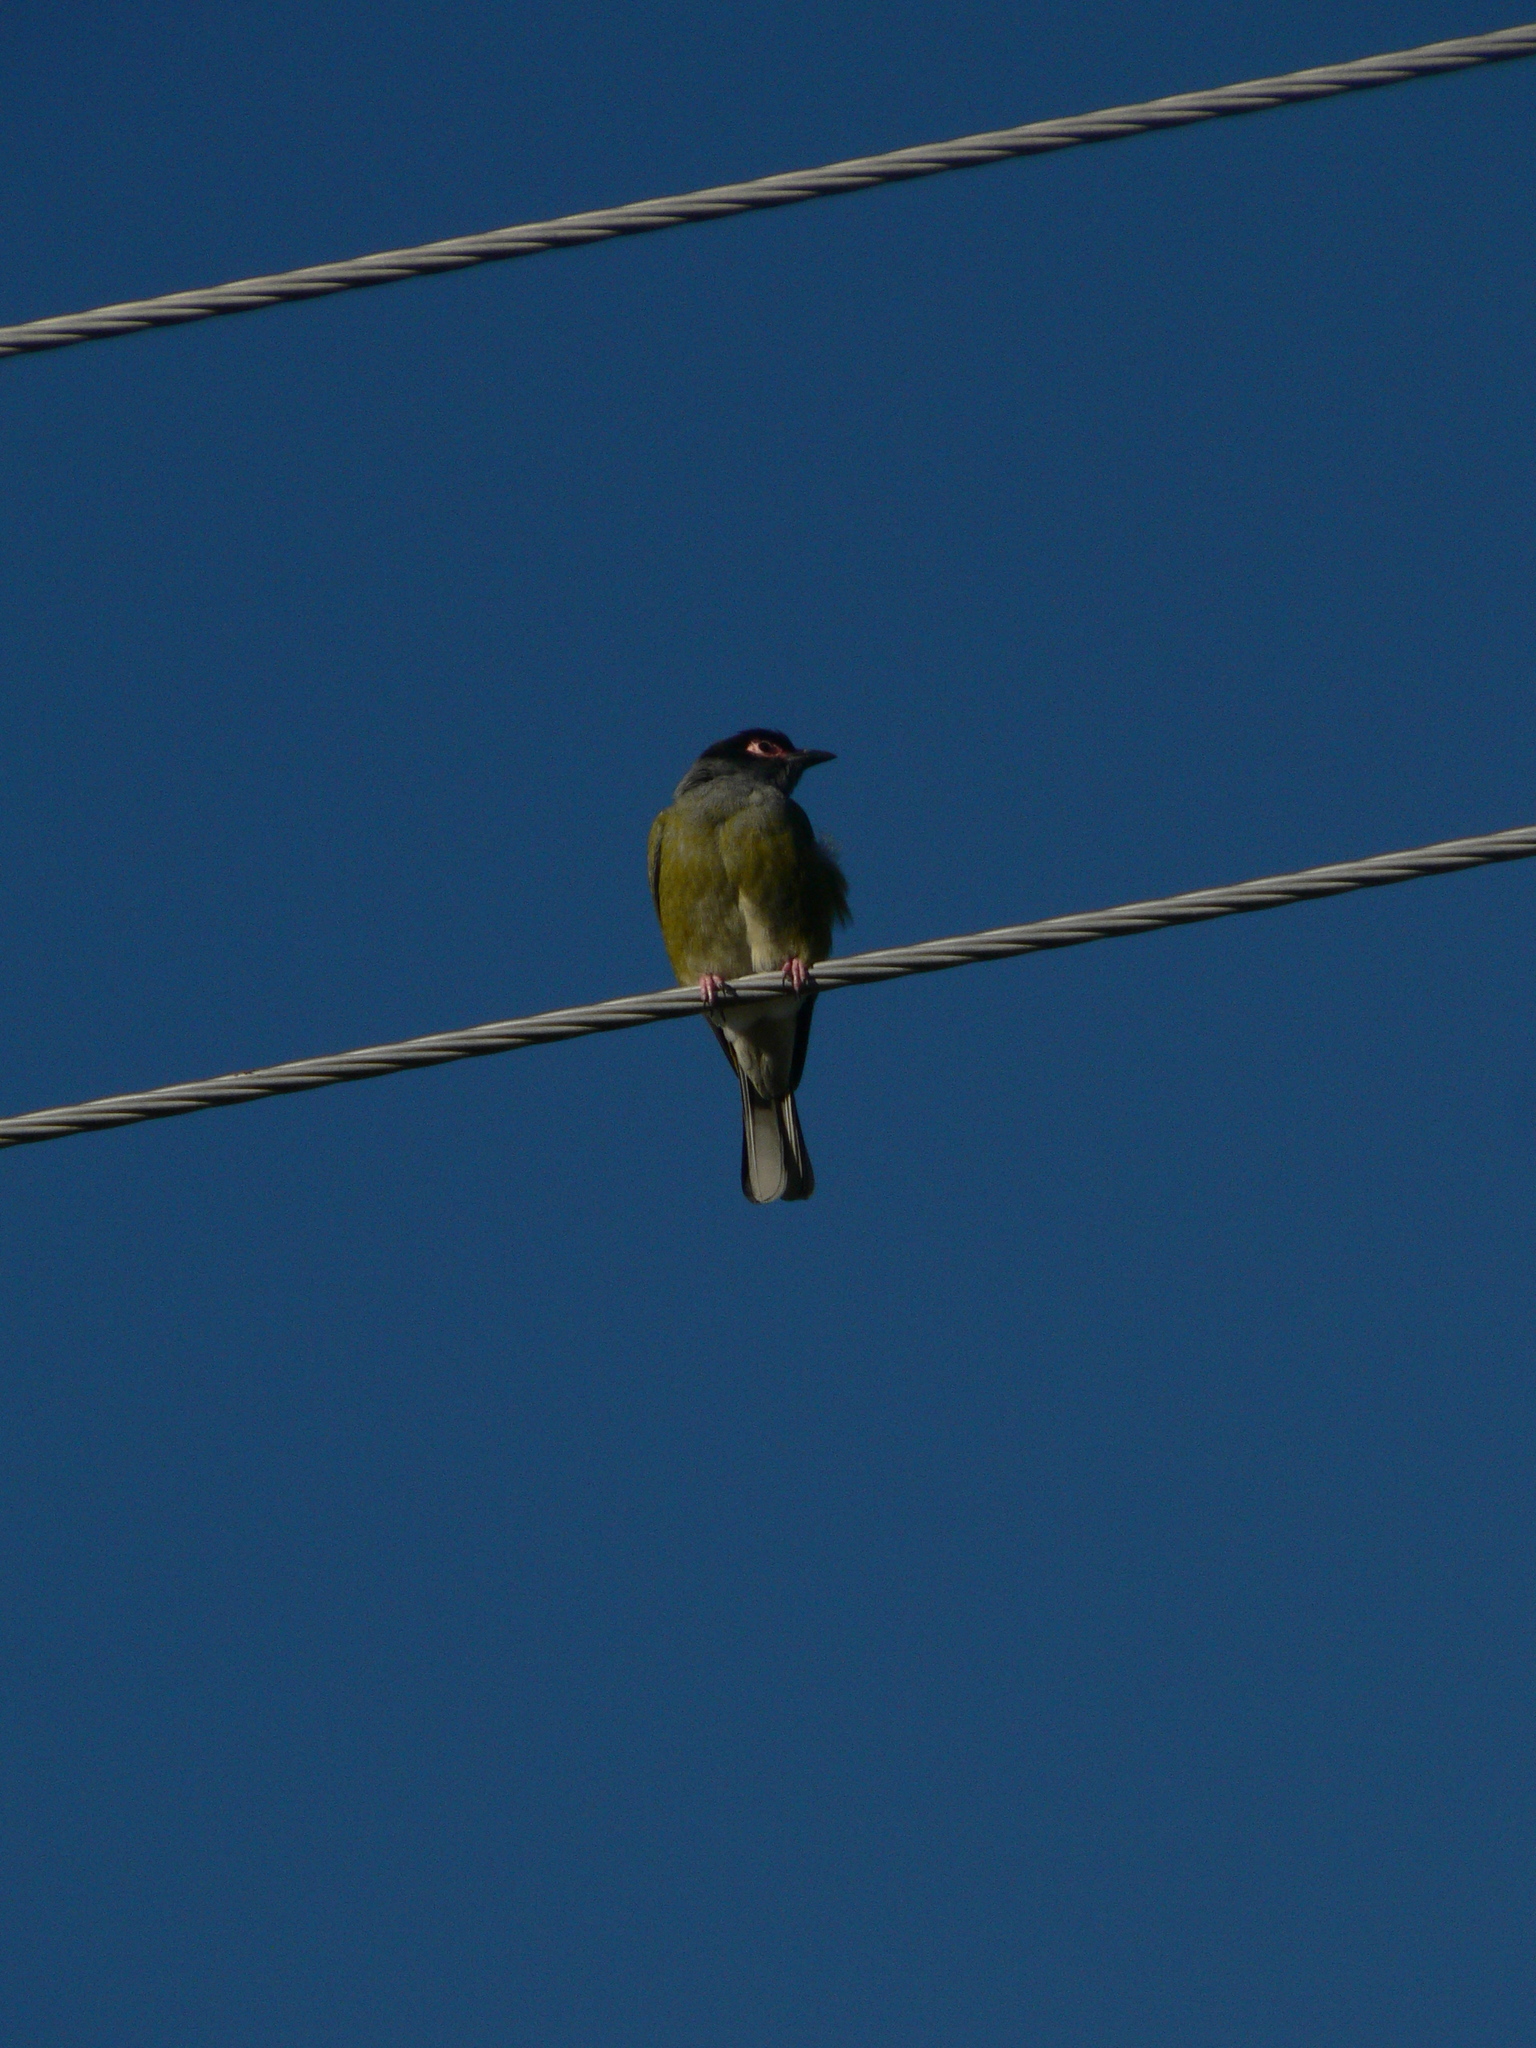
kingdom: Animalia
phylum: Chordata
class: Aves
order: Passeriformes
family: Oriolidae
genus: Sphecotheres
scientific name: Sphecotheres vieilloti
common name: Australasian figbird
